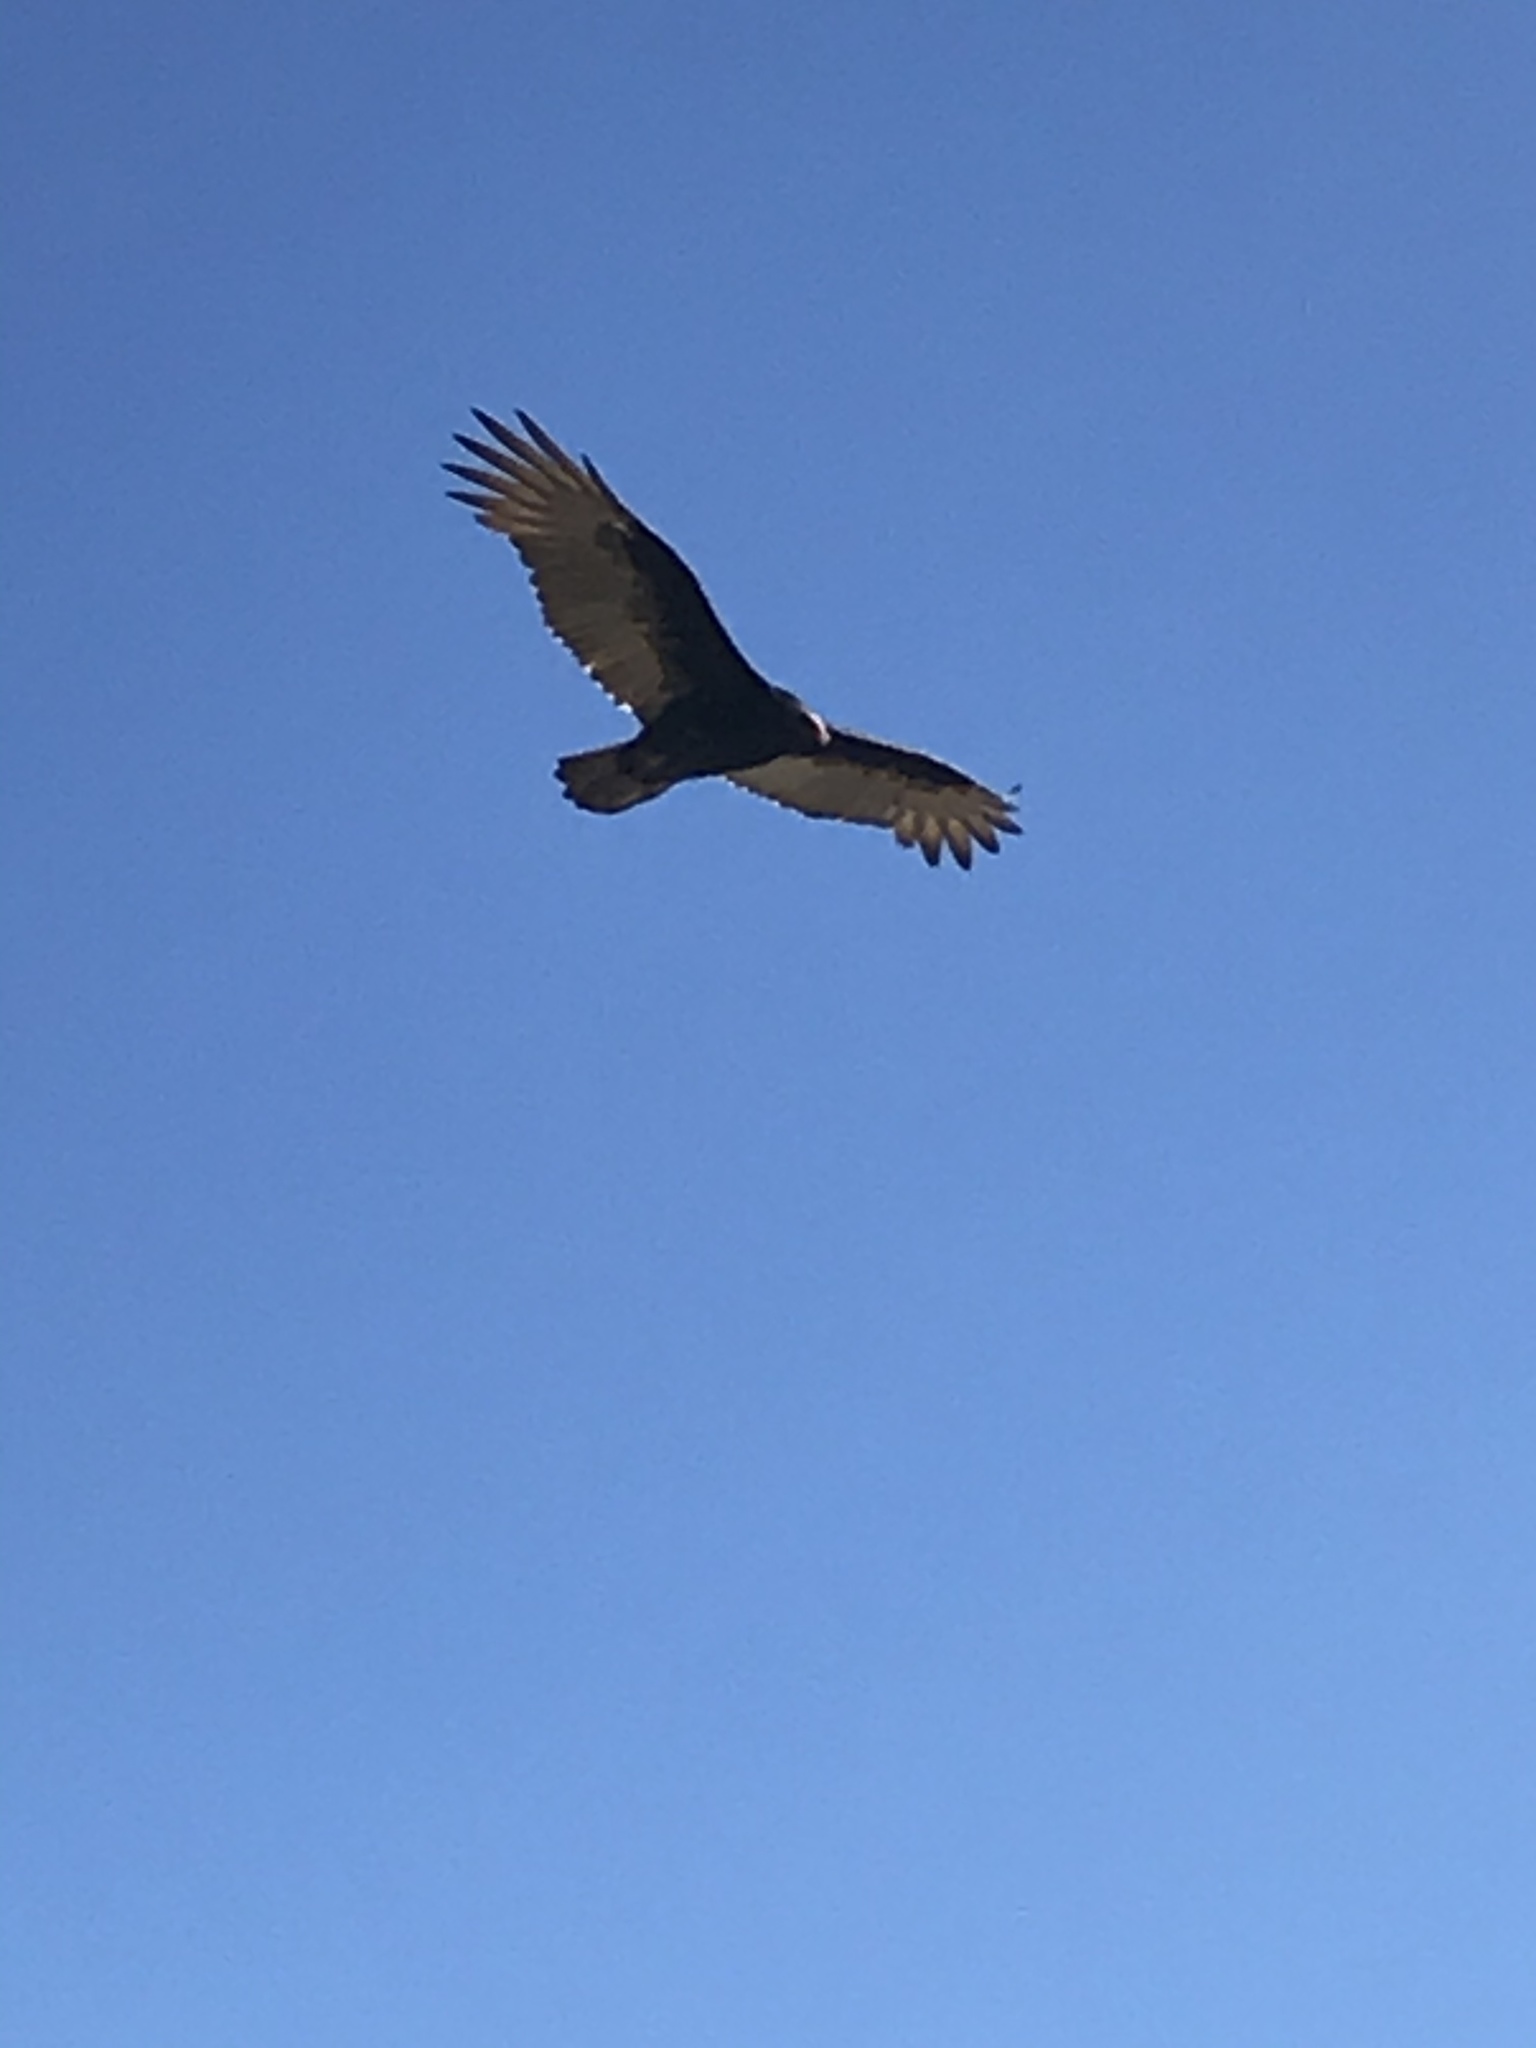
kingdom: Animalia
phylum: Chordata
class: Aves
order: Accipitriformes
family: Cathartidae
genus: Cathartes
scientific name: Cathartes aura
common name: Turkey vulture
